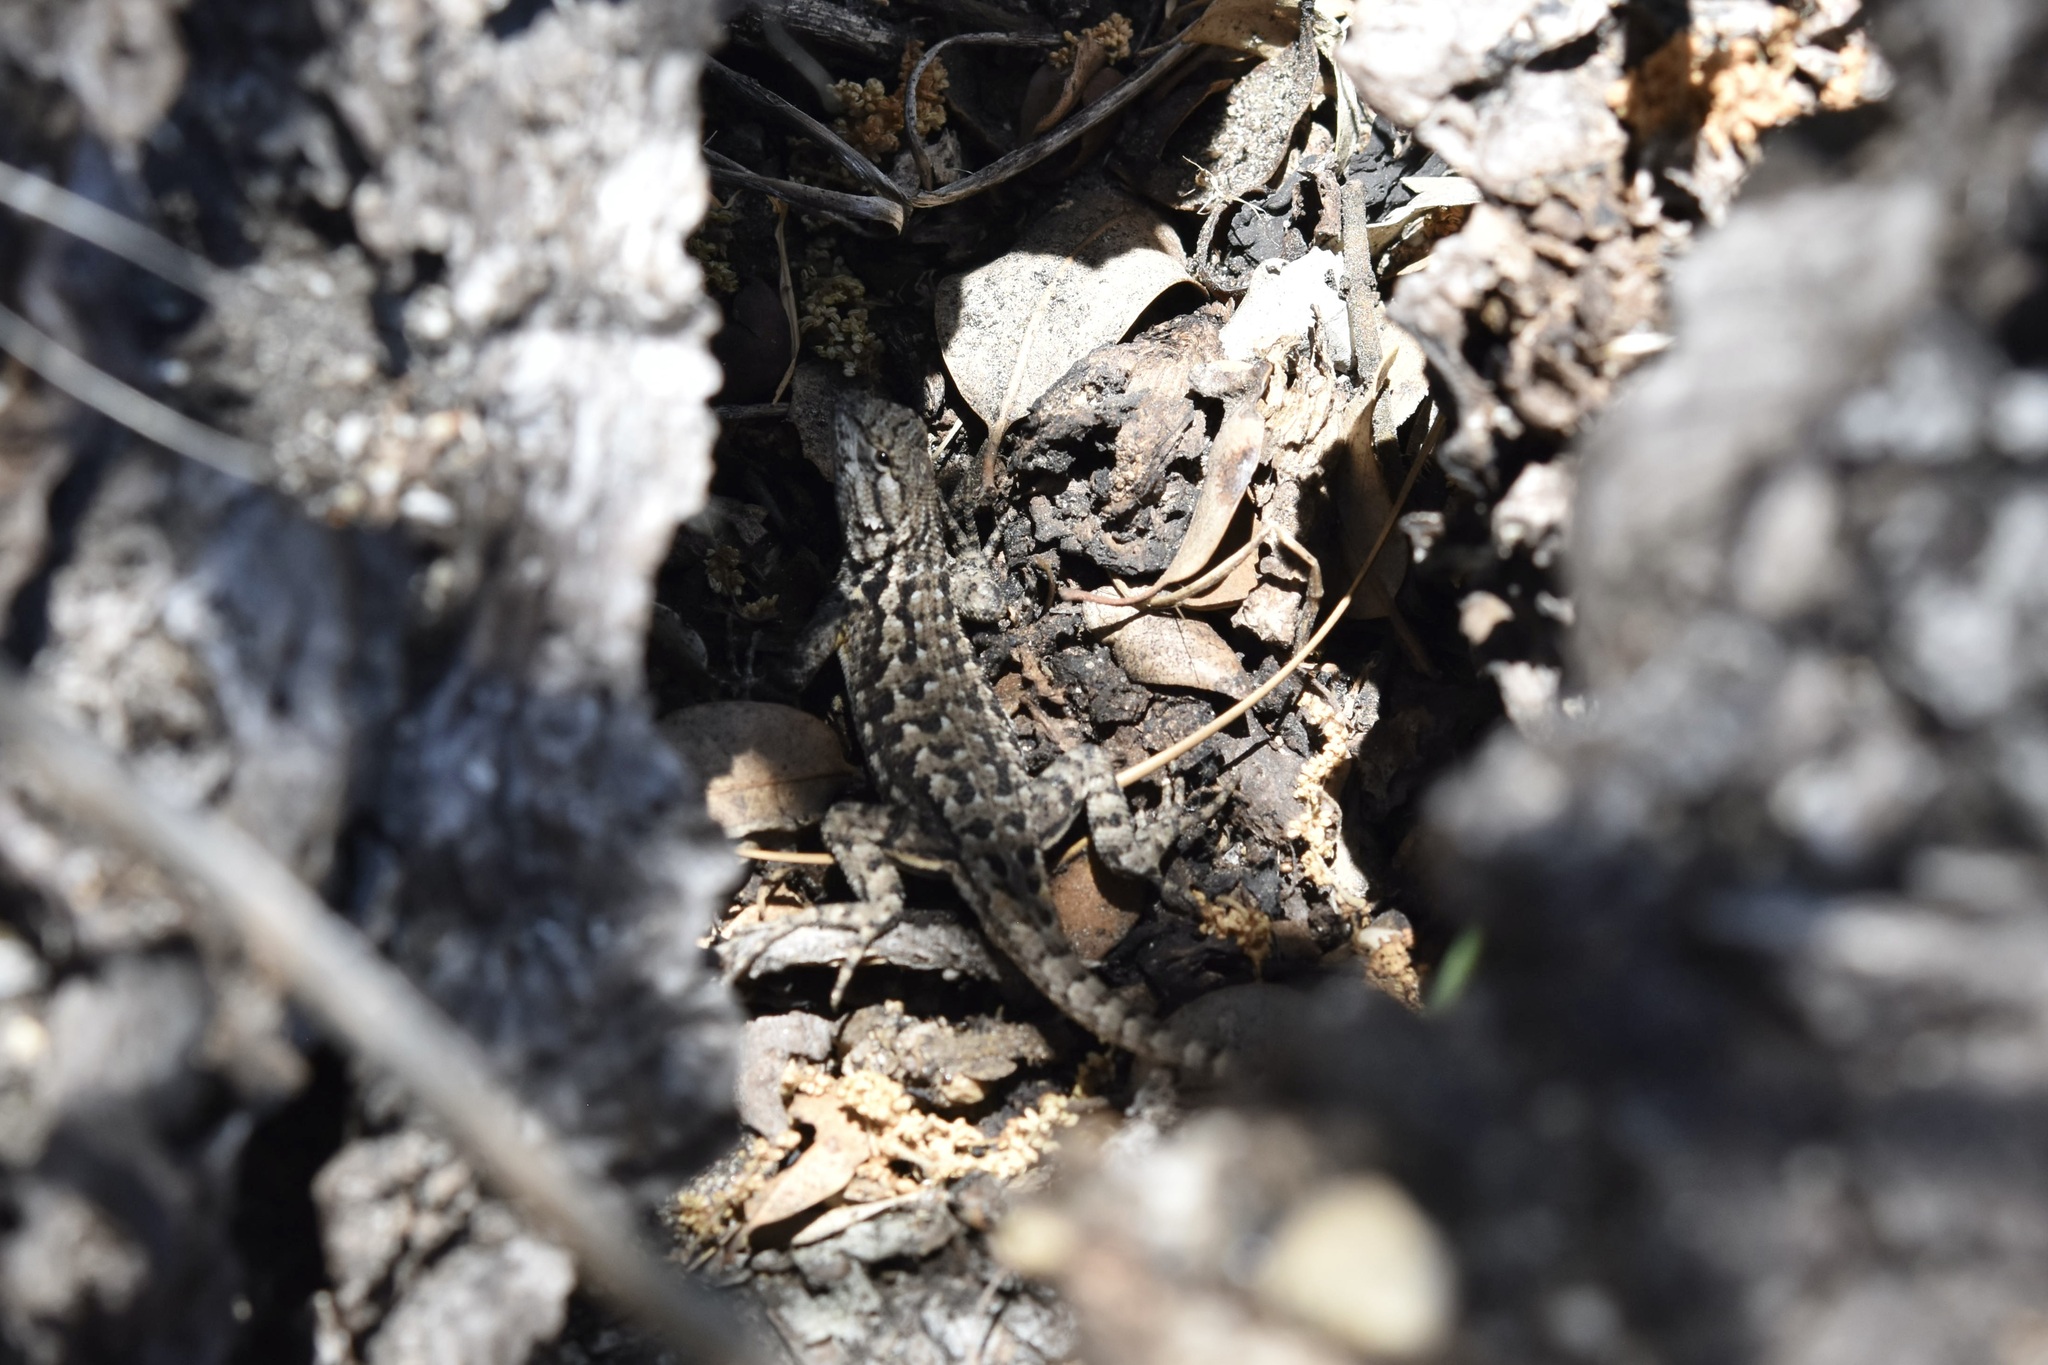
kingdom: Animalia
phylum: Chordata
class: Squamata
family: Phrynosomatidae
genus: Sceloporus
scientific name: Sceloporus occidentalis
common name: Western fence lizard
